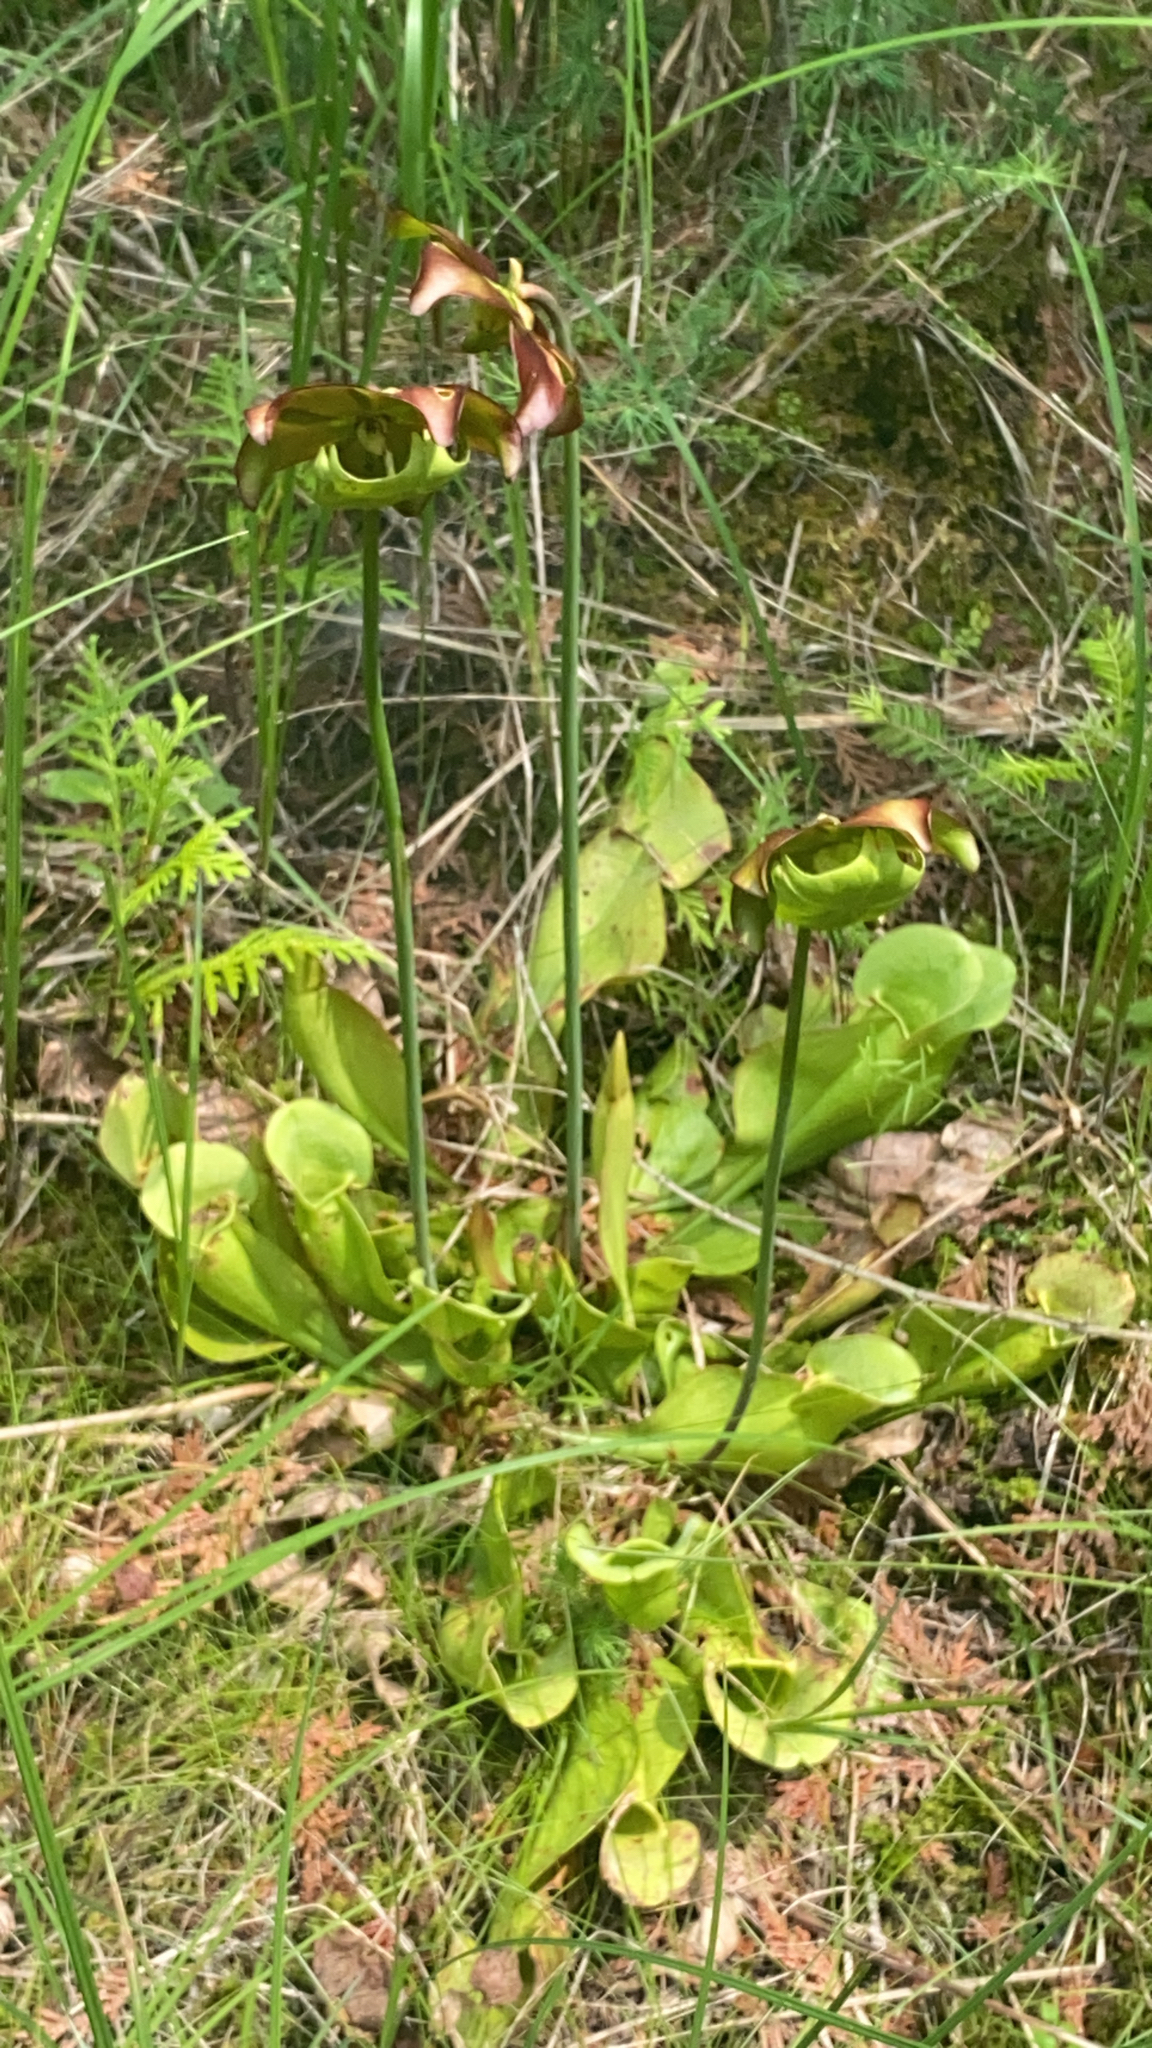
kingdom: Plantae
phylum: Tracheophyta
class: Magnoliopsida
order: Ericales
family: Sarraceniaceae
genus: Sarracenia
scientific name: Sarracenia purpurea
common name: Pitcherplant
